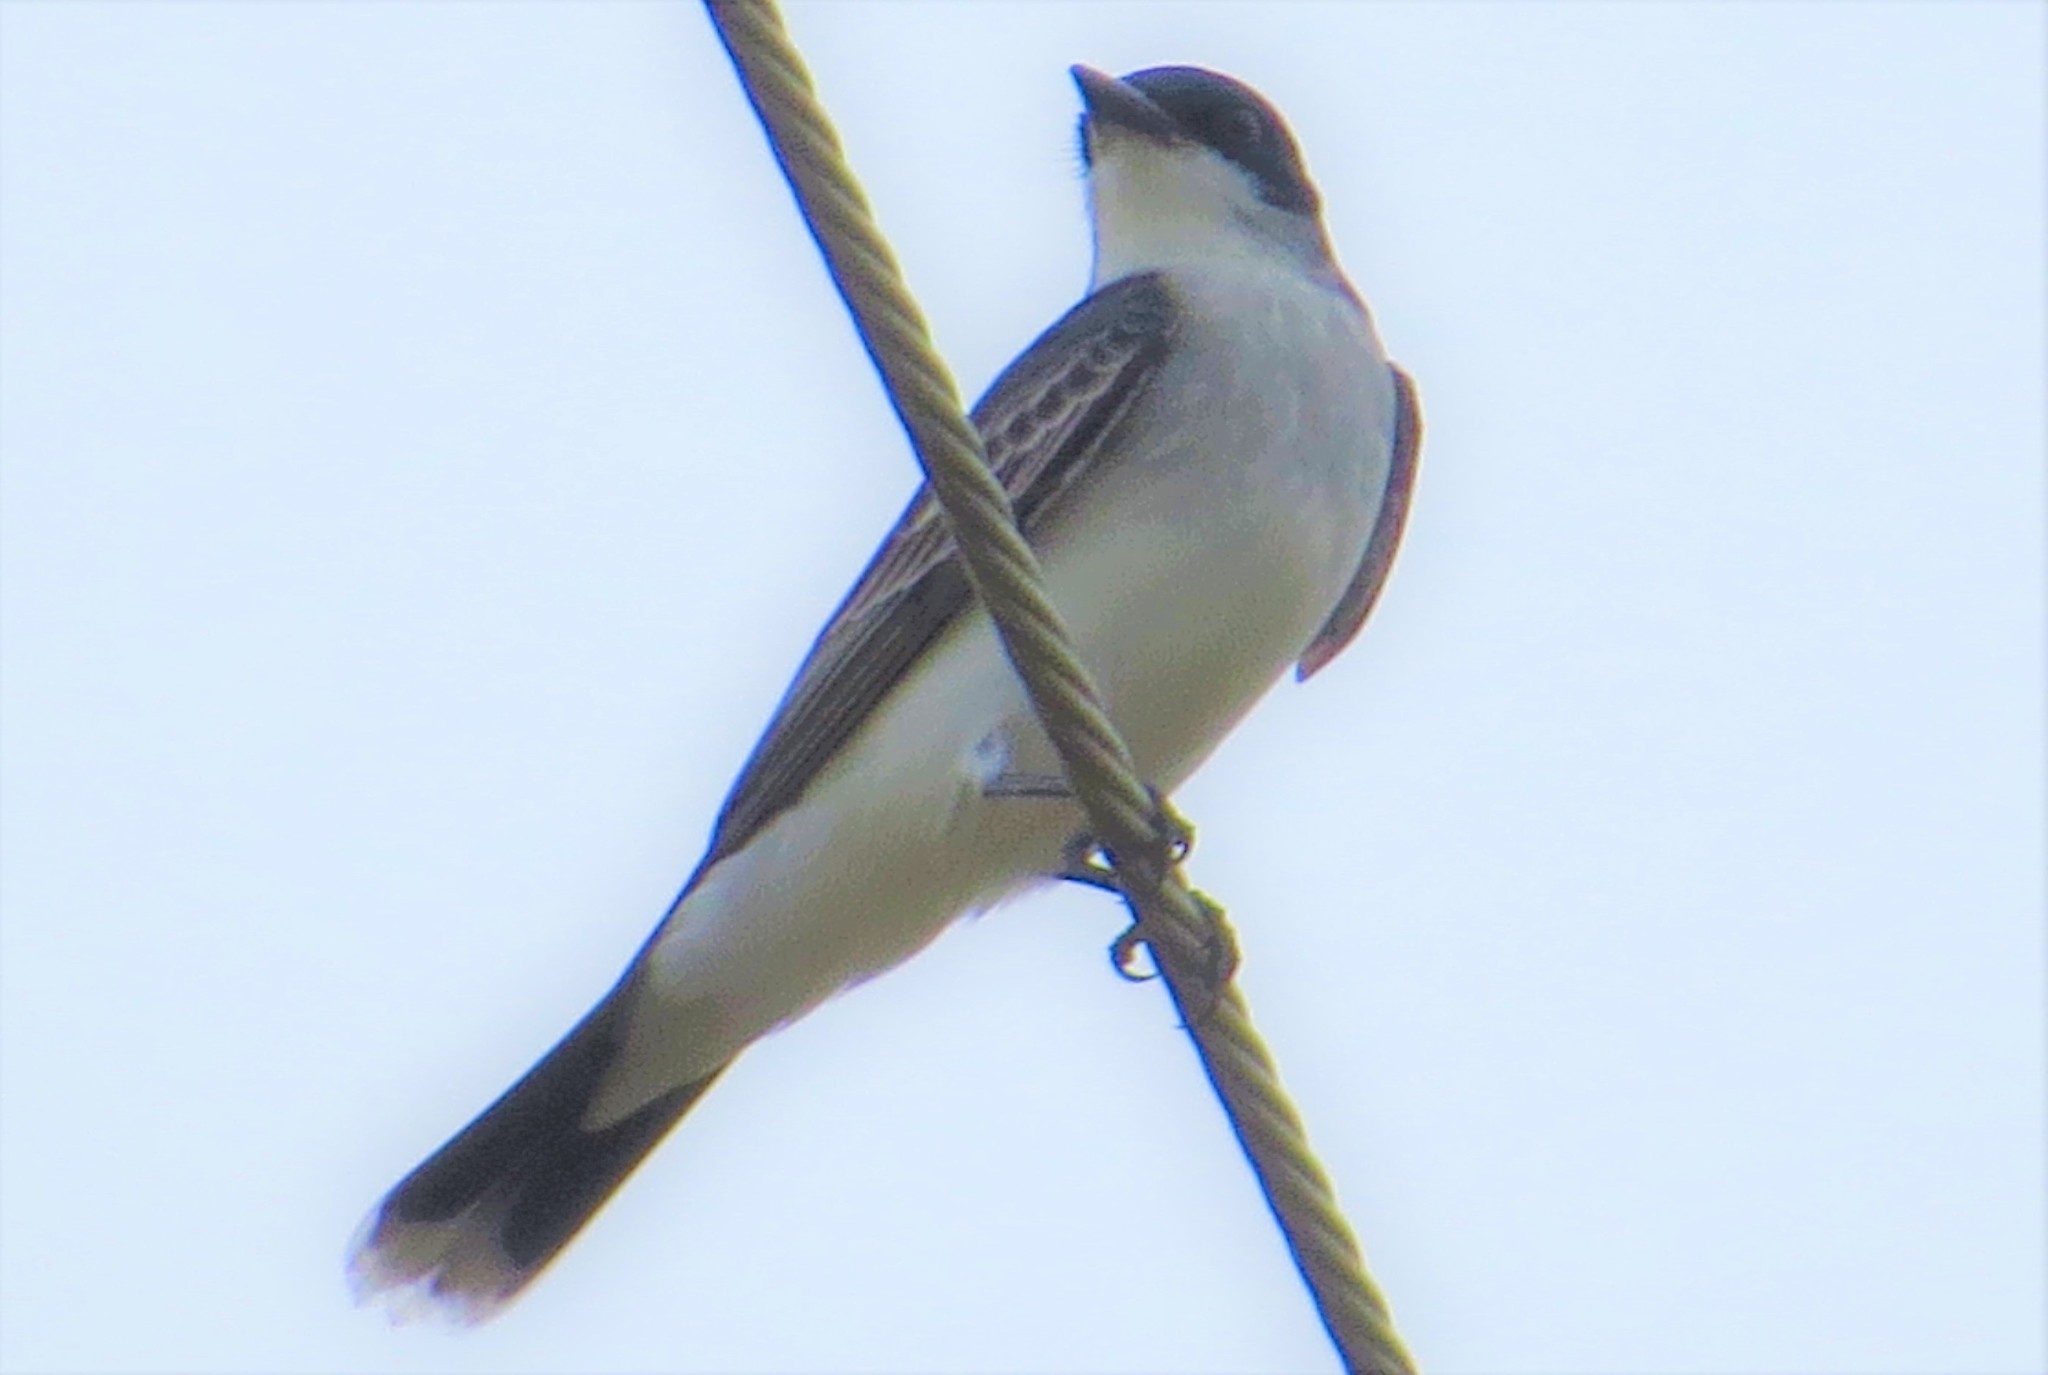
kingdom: Animalia
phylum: Chordata
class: Aves
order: Passeriformes
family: Tyrannidae
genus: Tyrannus
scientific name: Tyrannus tyrannus
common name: Eastern kingbird
